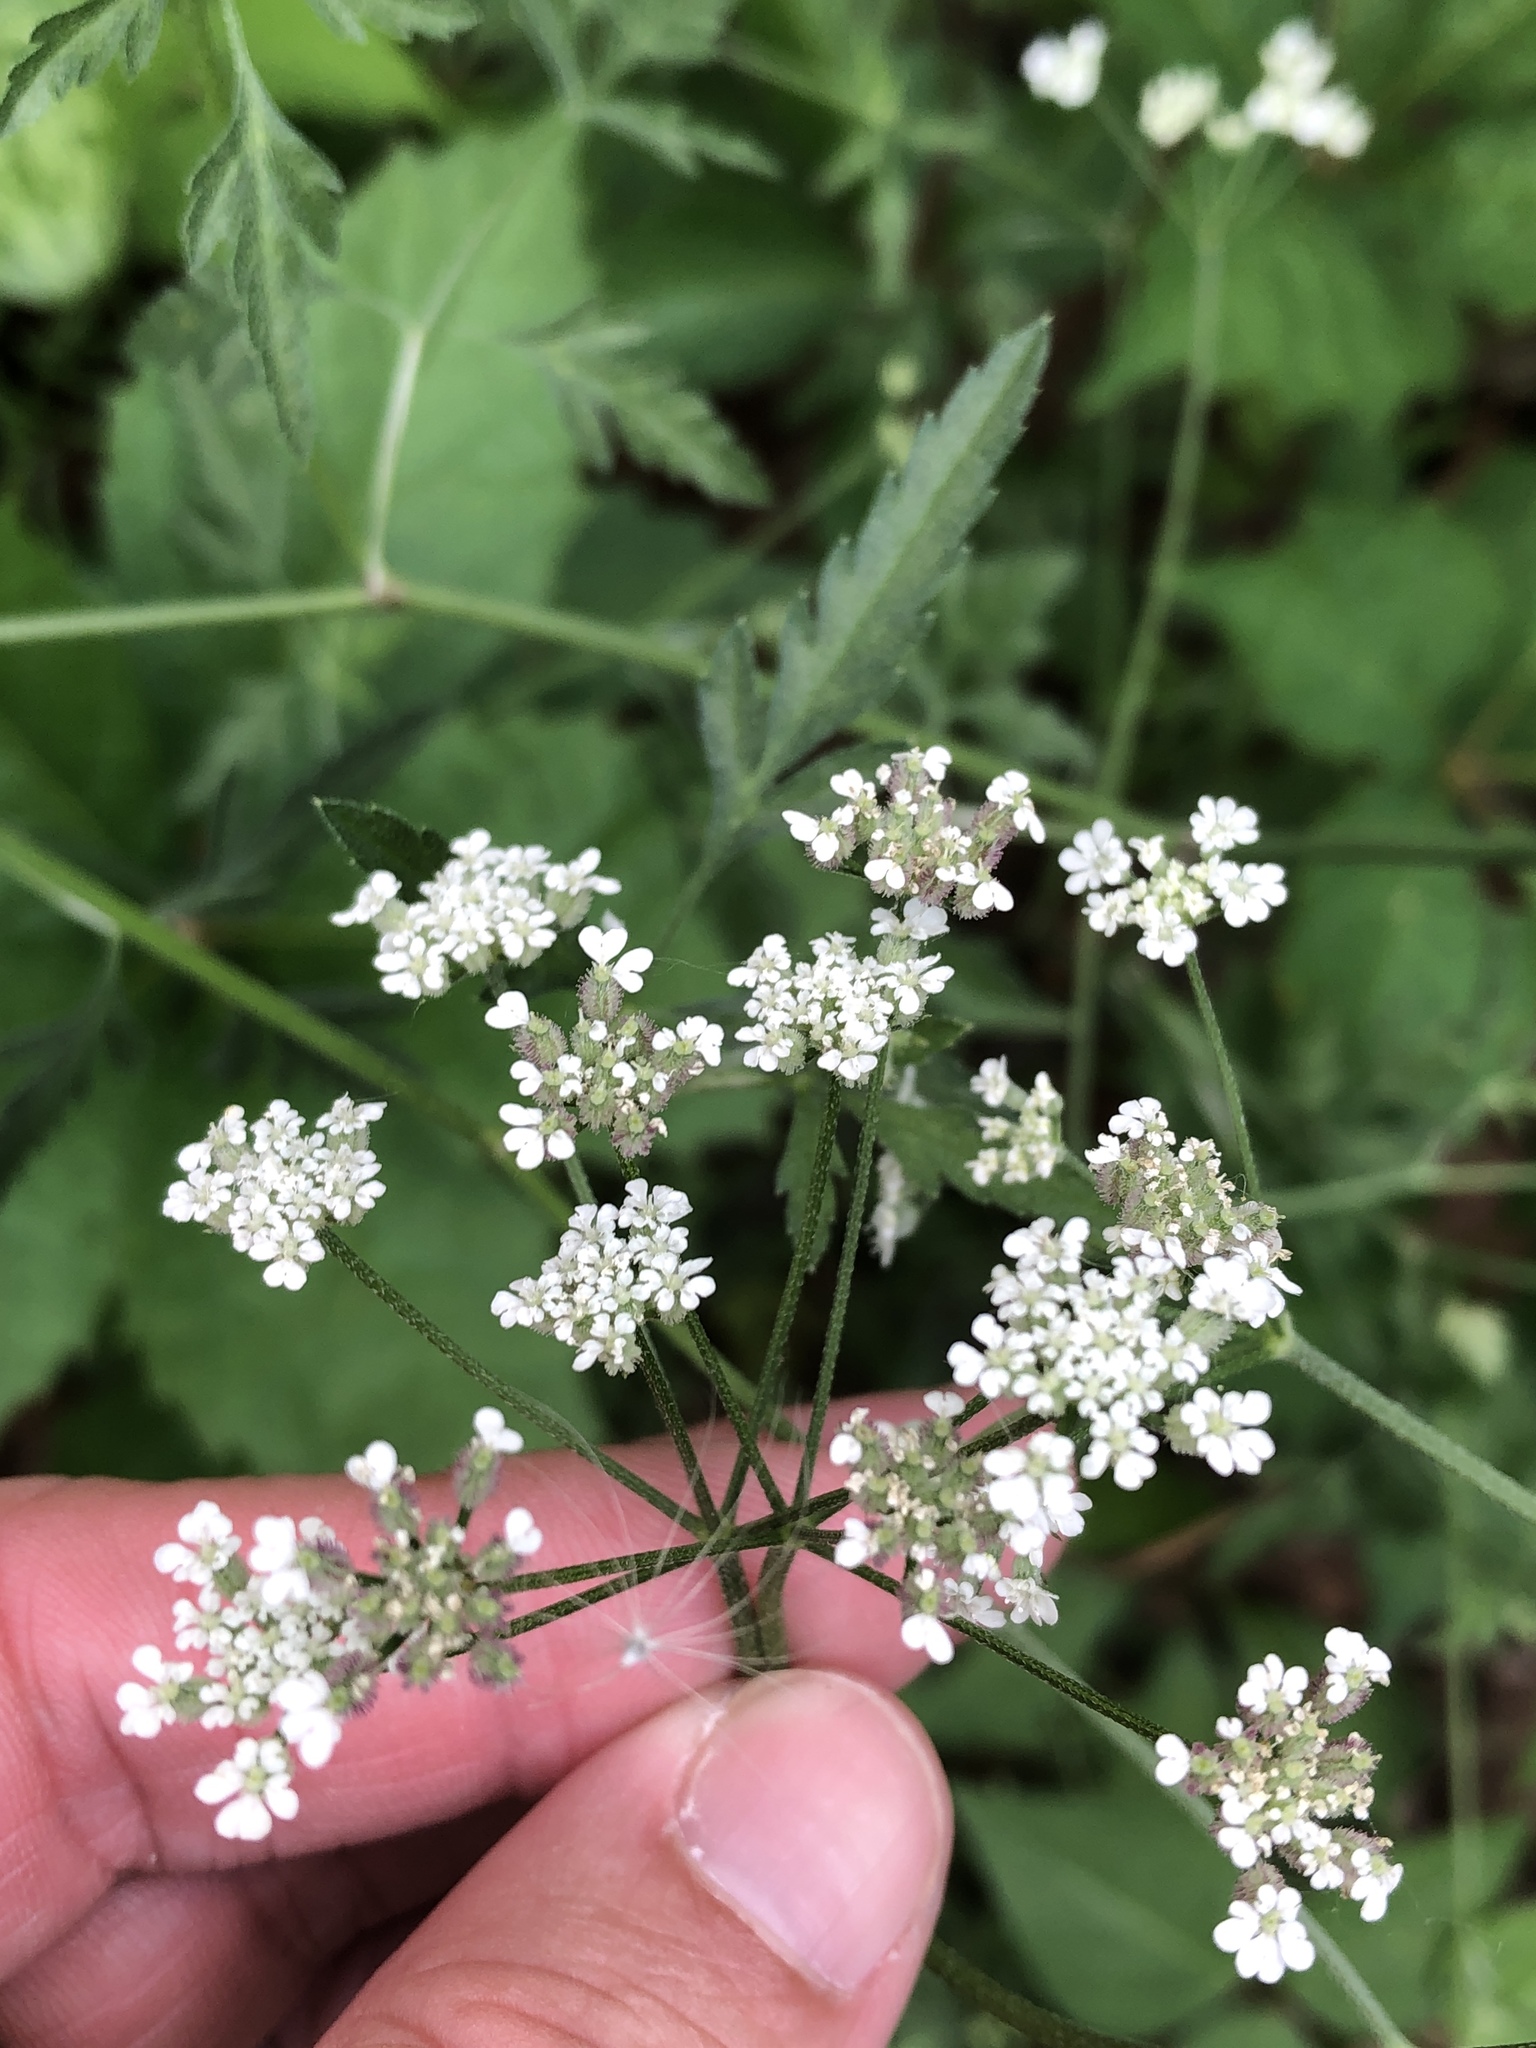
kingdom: Plantae
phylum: Tracheophyta
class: Magnoliopsida
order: Apiales
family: Apiaceae
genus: Torilis
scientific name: Torilis arvensis
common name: Spreading hedge-parsley
